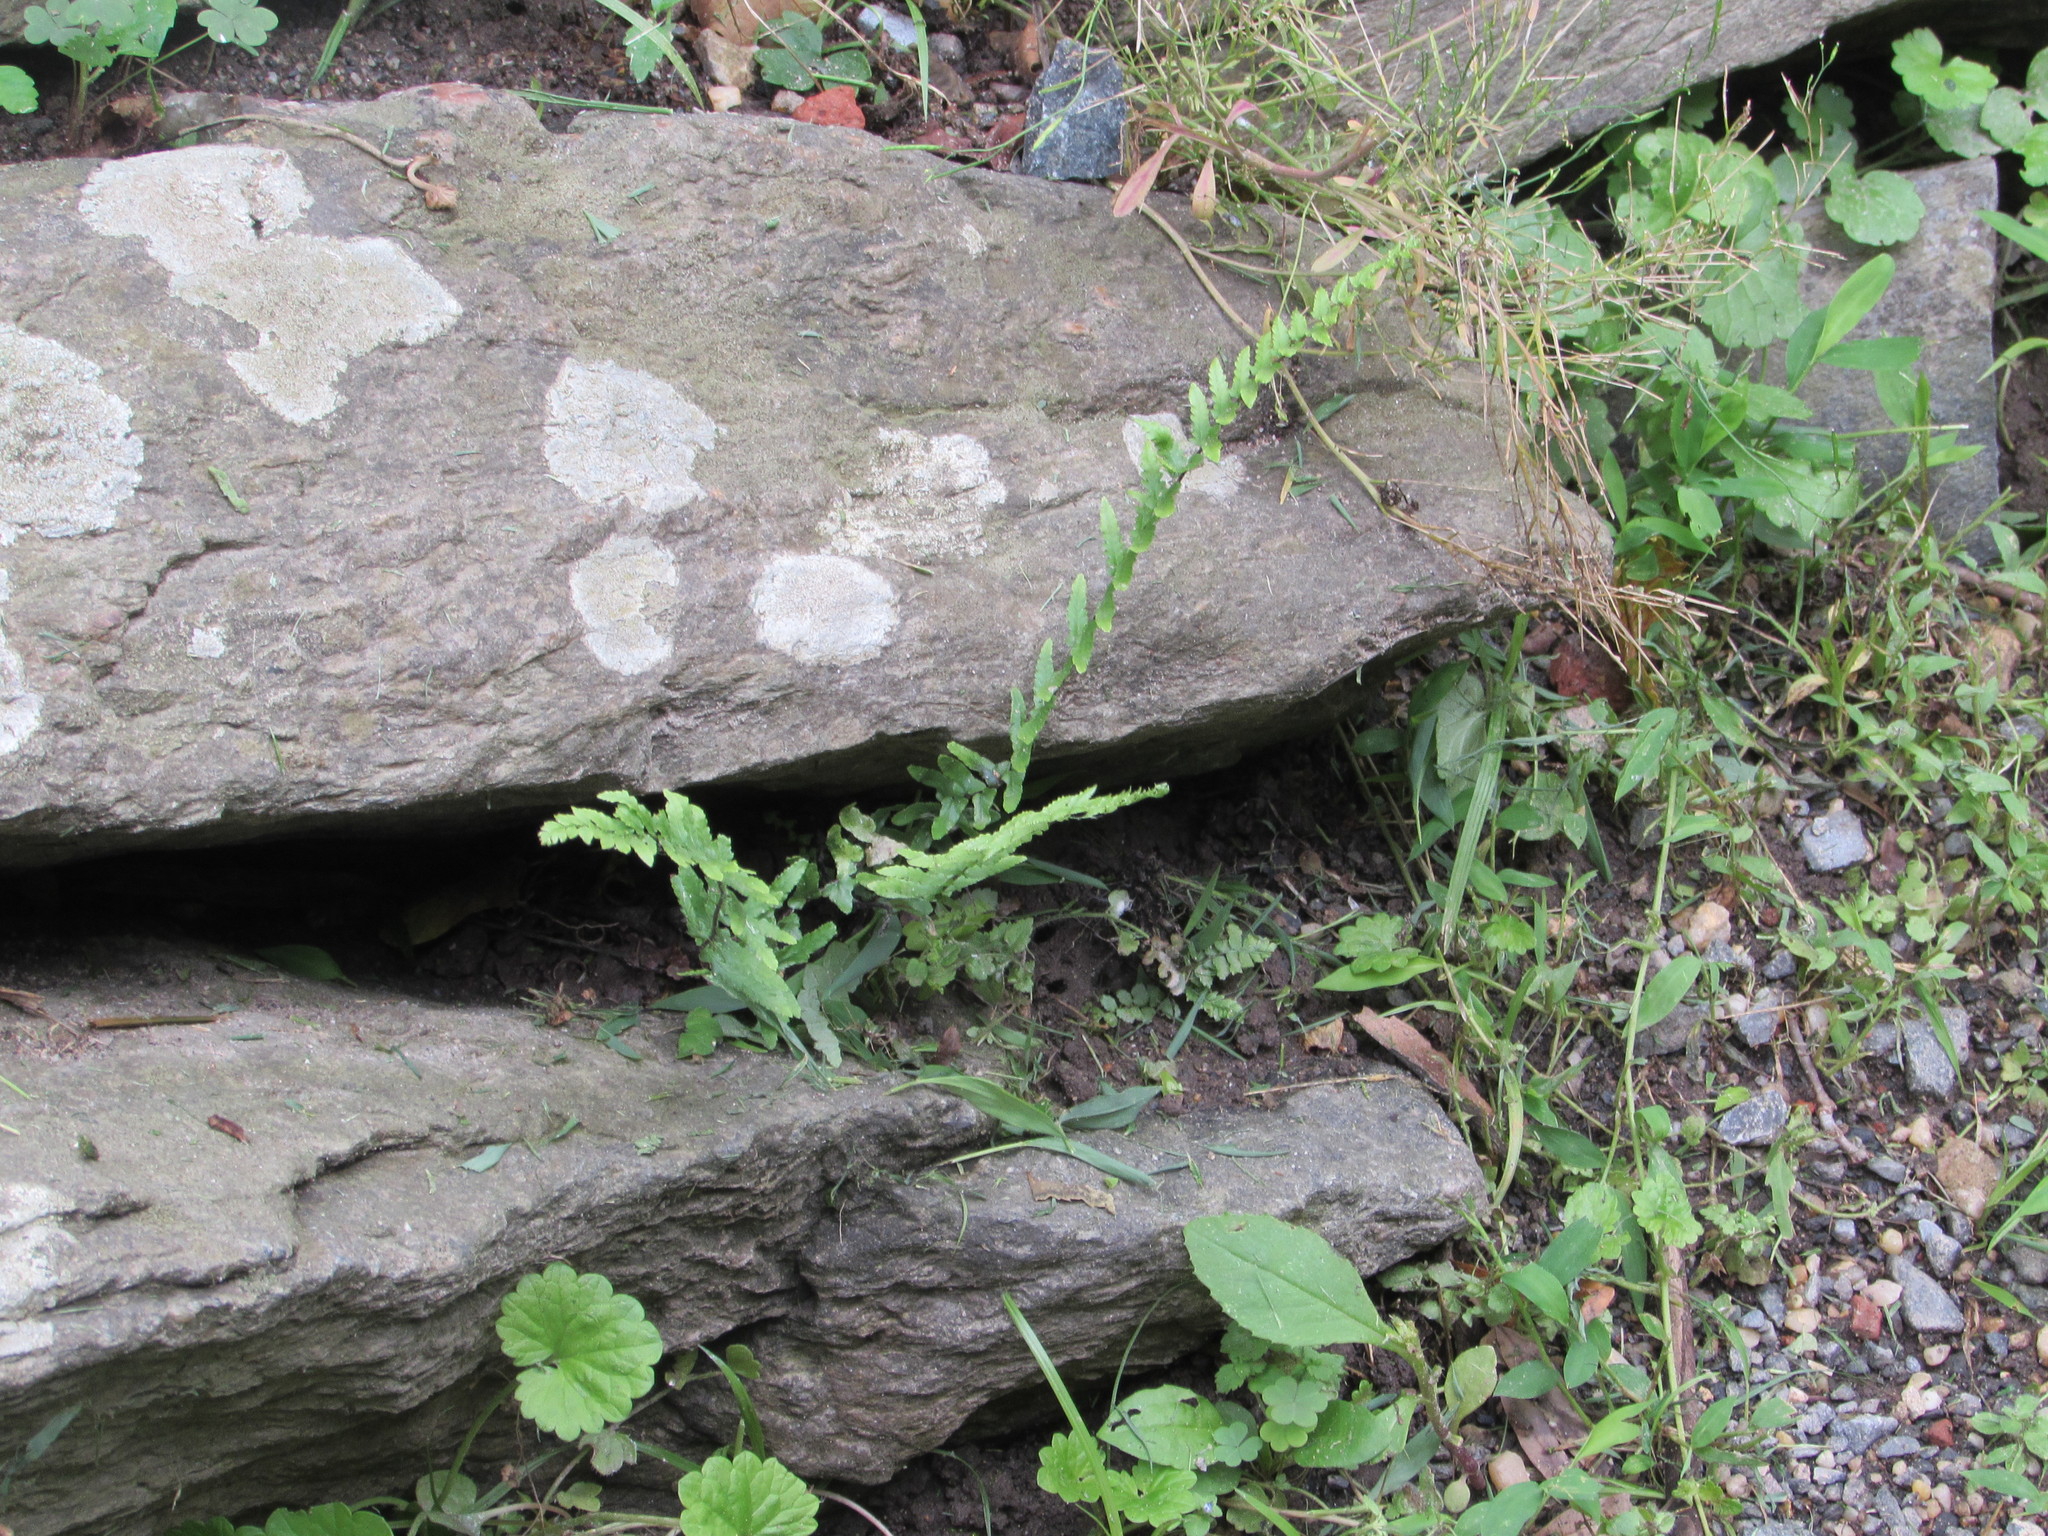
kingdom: Plantae
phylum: Tracheophyta
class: Polypodiopsida
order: Polypodiales
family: Aspleniaceae
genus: Asplenium
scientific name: Asplenium platyneuron
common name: Ebony spleenwort
